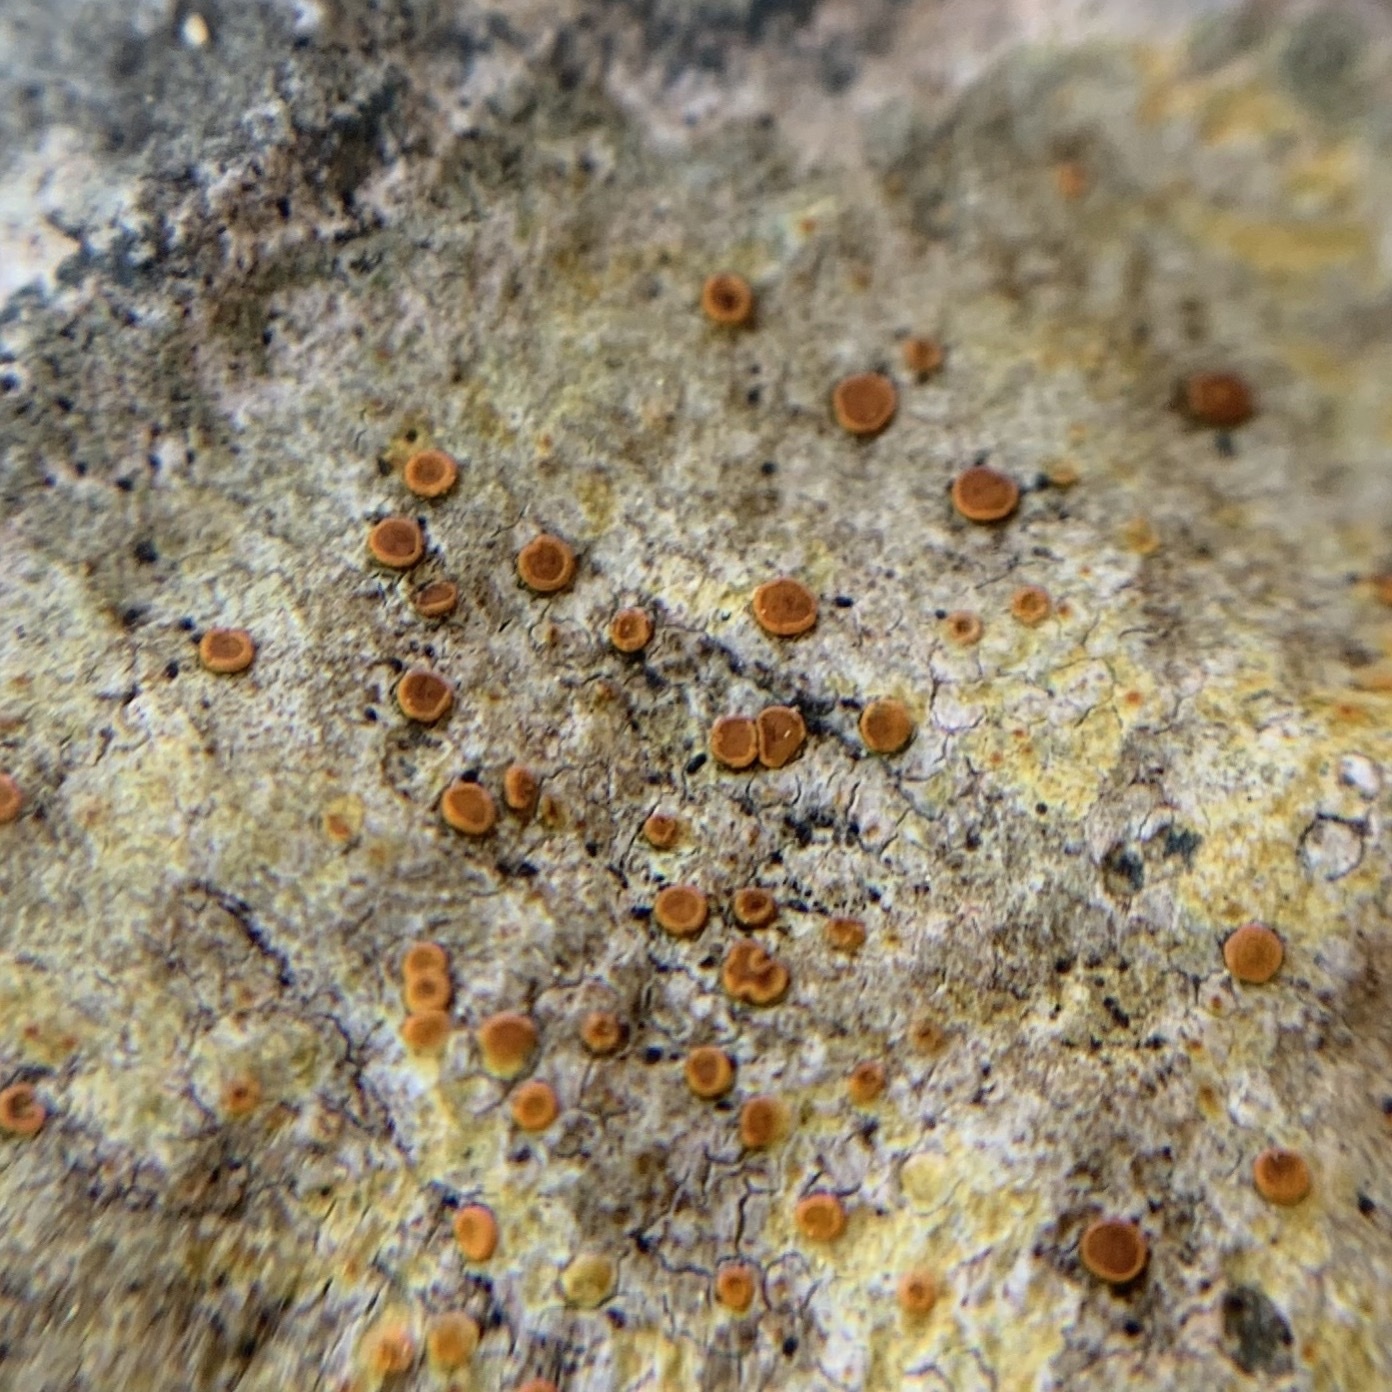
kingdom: Fungi
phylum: Ascomycota
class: Lecanoromycetes
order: Teloschistales
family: Teloschistaceae
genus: Gyalolechia
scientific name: Gyalolechia flavovirescens
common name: Sulphur firedot
